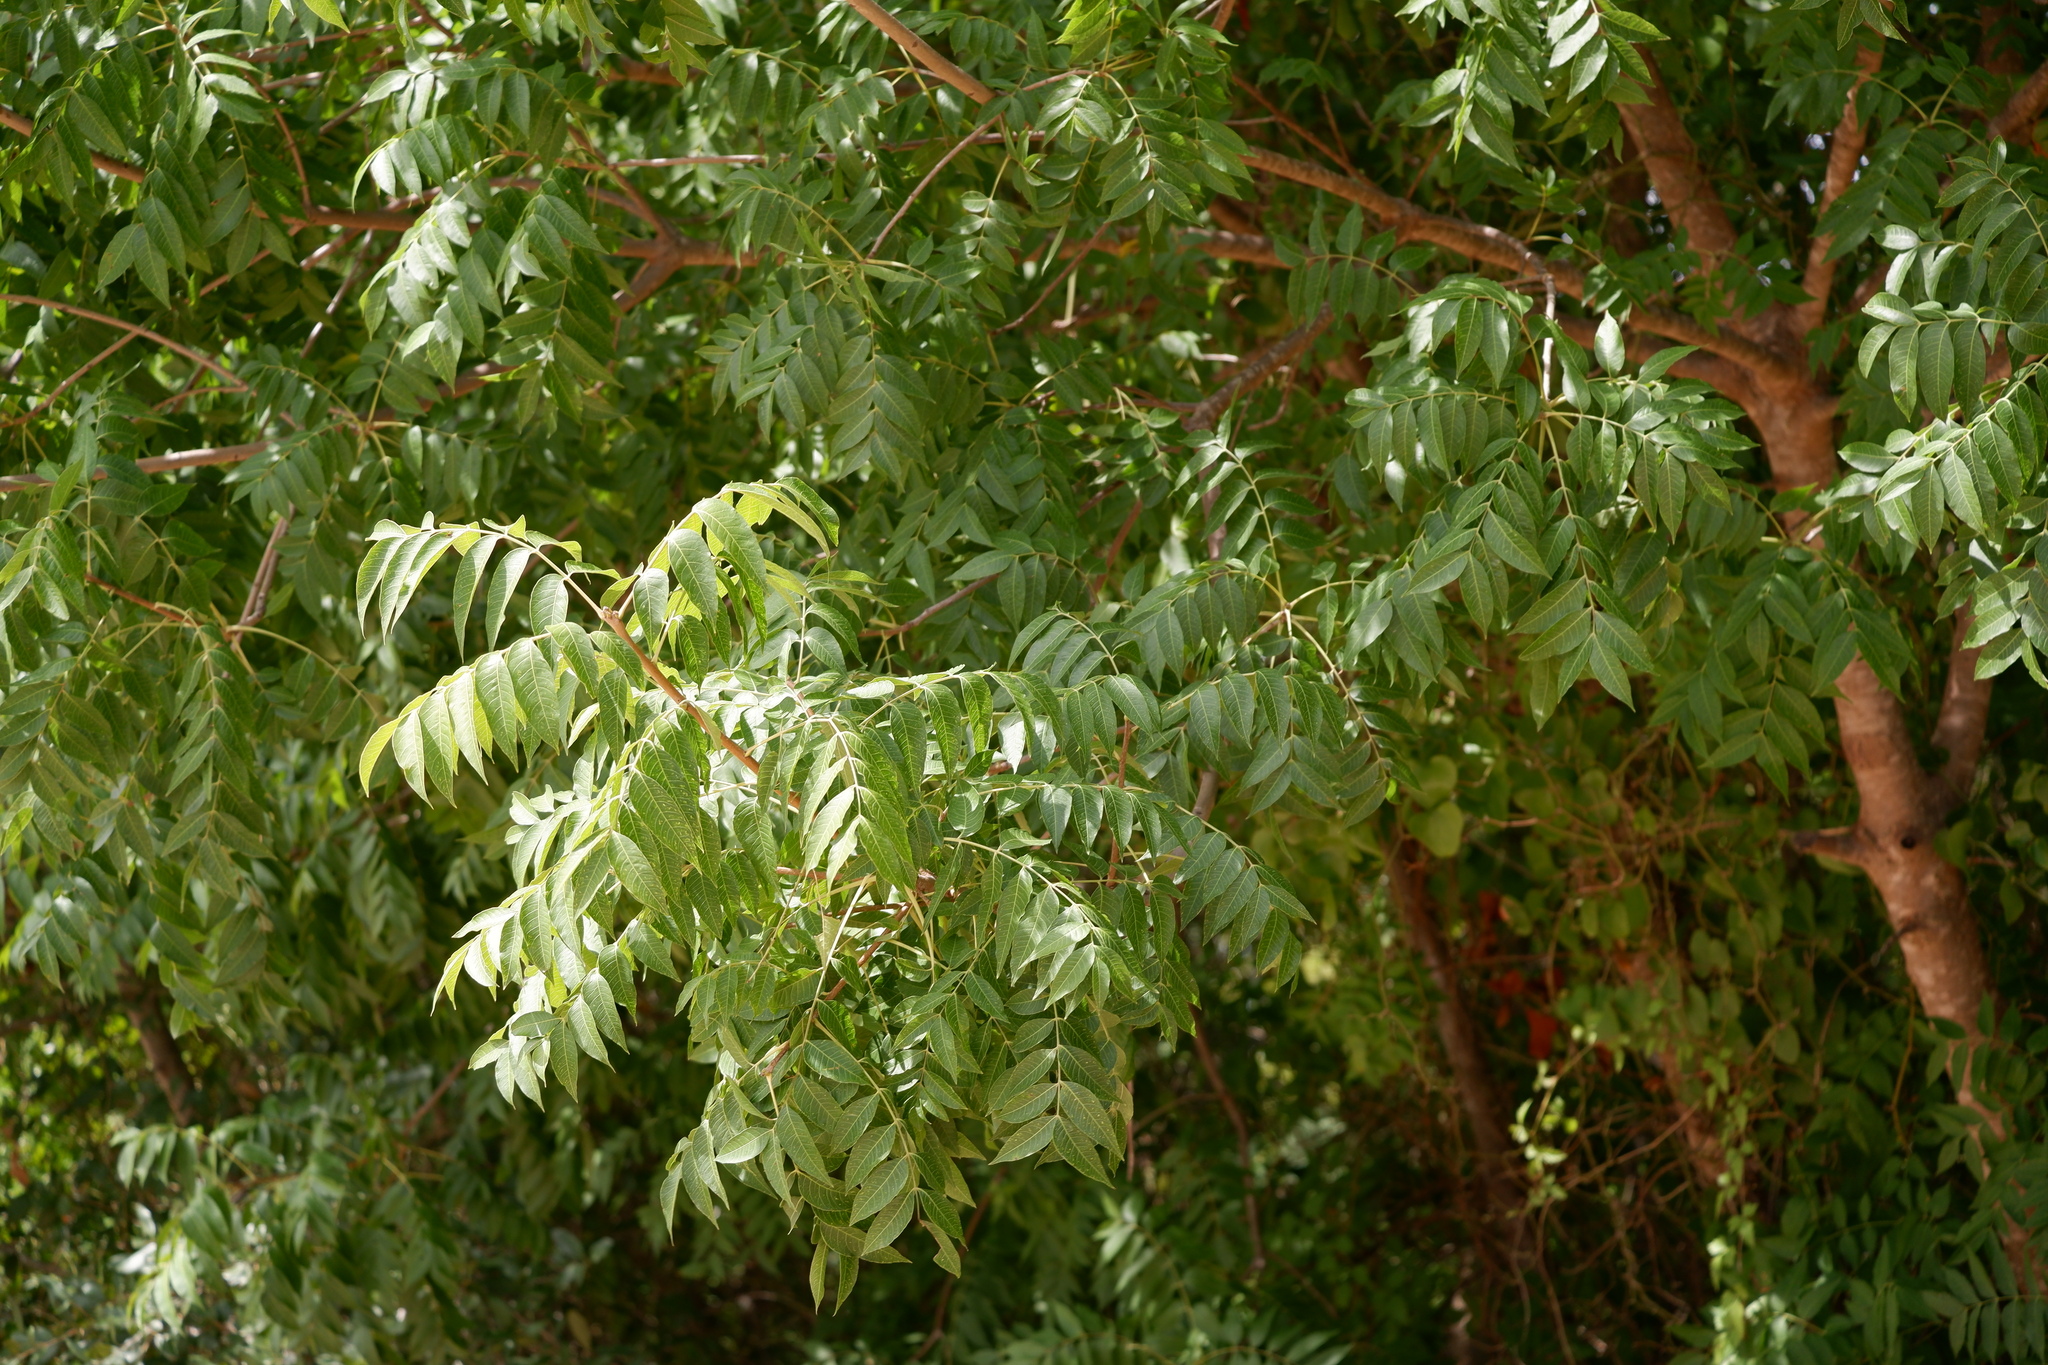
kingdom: Plantae
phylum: Tracheophyta
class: Magnoliopsida
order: Sapindales
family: Anacardiaceae
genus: Pistacia
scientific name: Pistacia chinensis
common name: Chinese pistache
